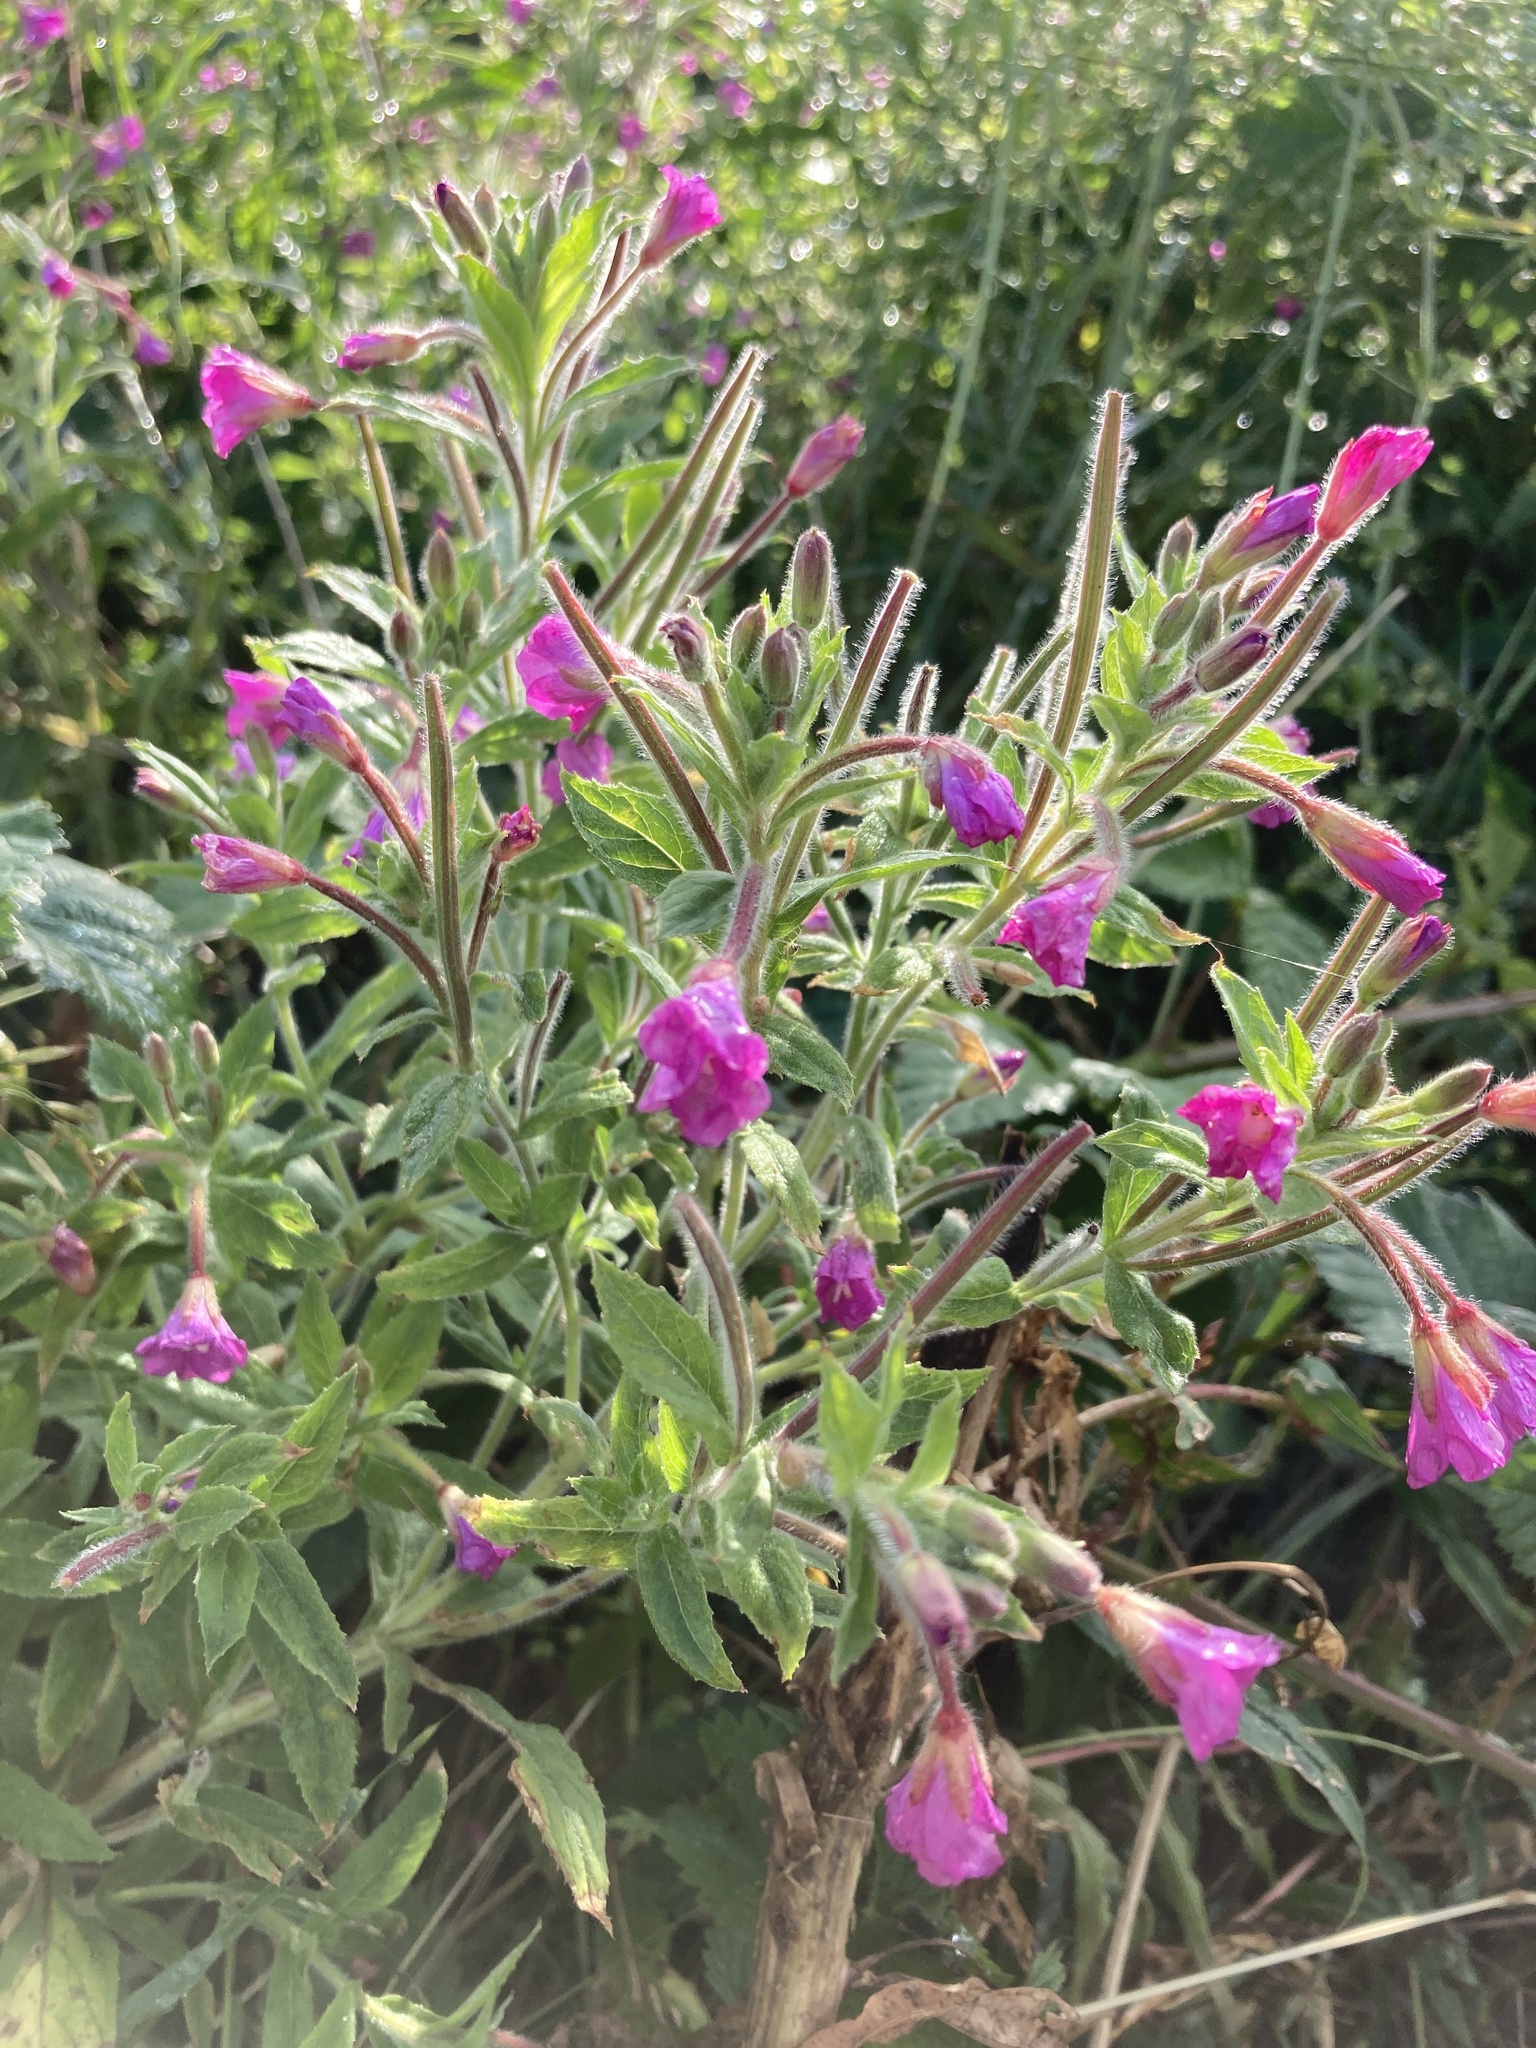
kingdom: Plantae
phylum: Tracheophyta
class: Magnoliopsida
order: Myrtales
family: Onagraceae
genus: Epilobium
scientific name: Epilobium hirsutum
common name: Great willowherb
